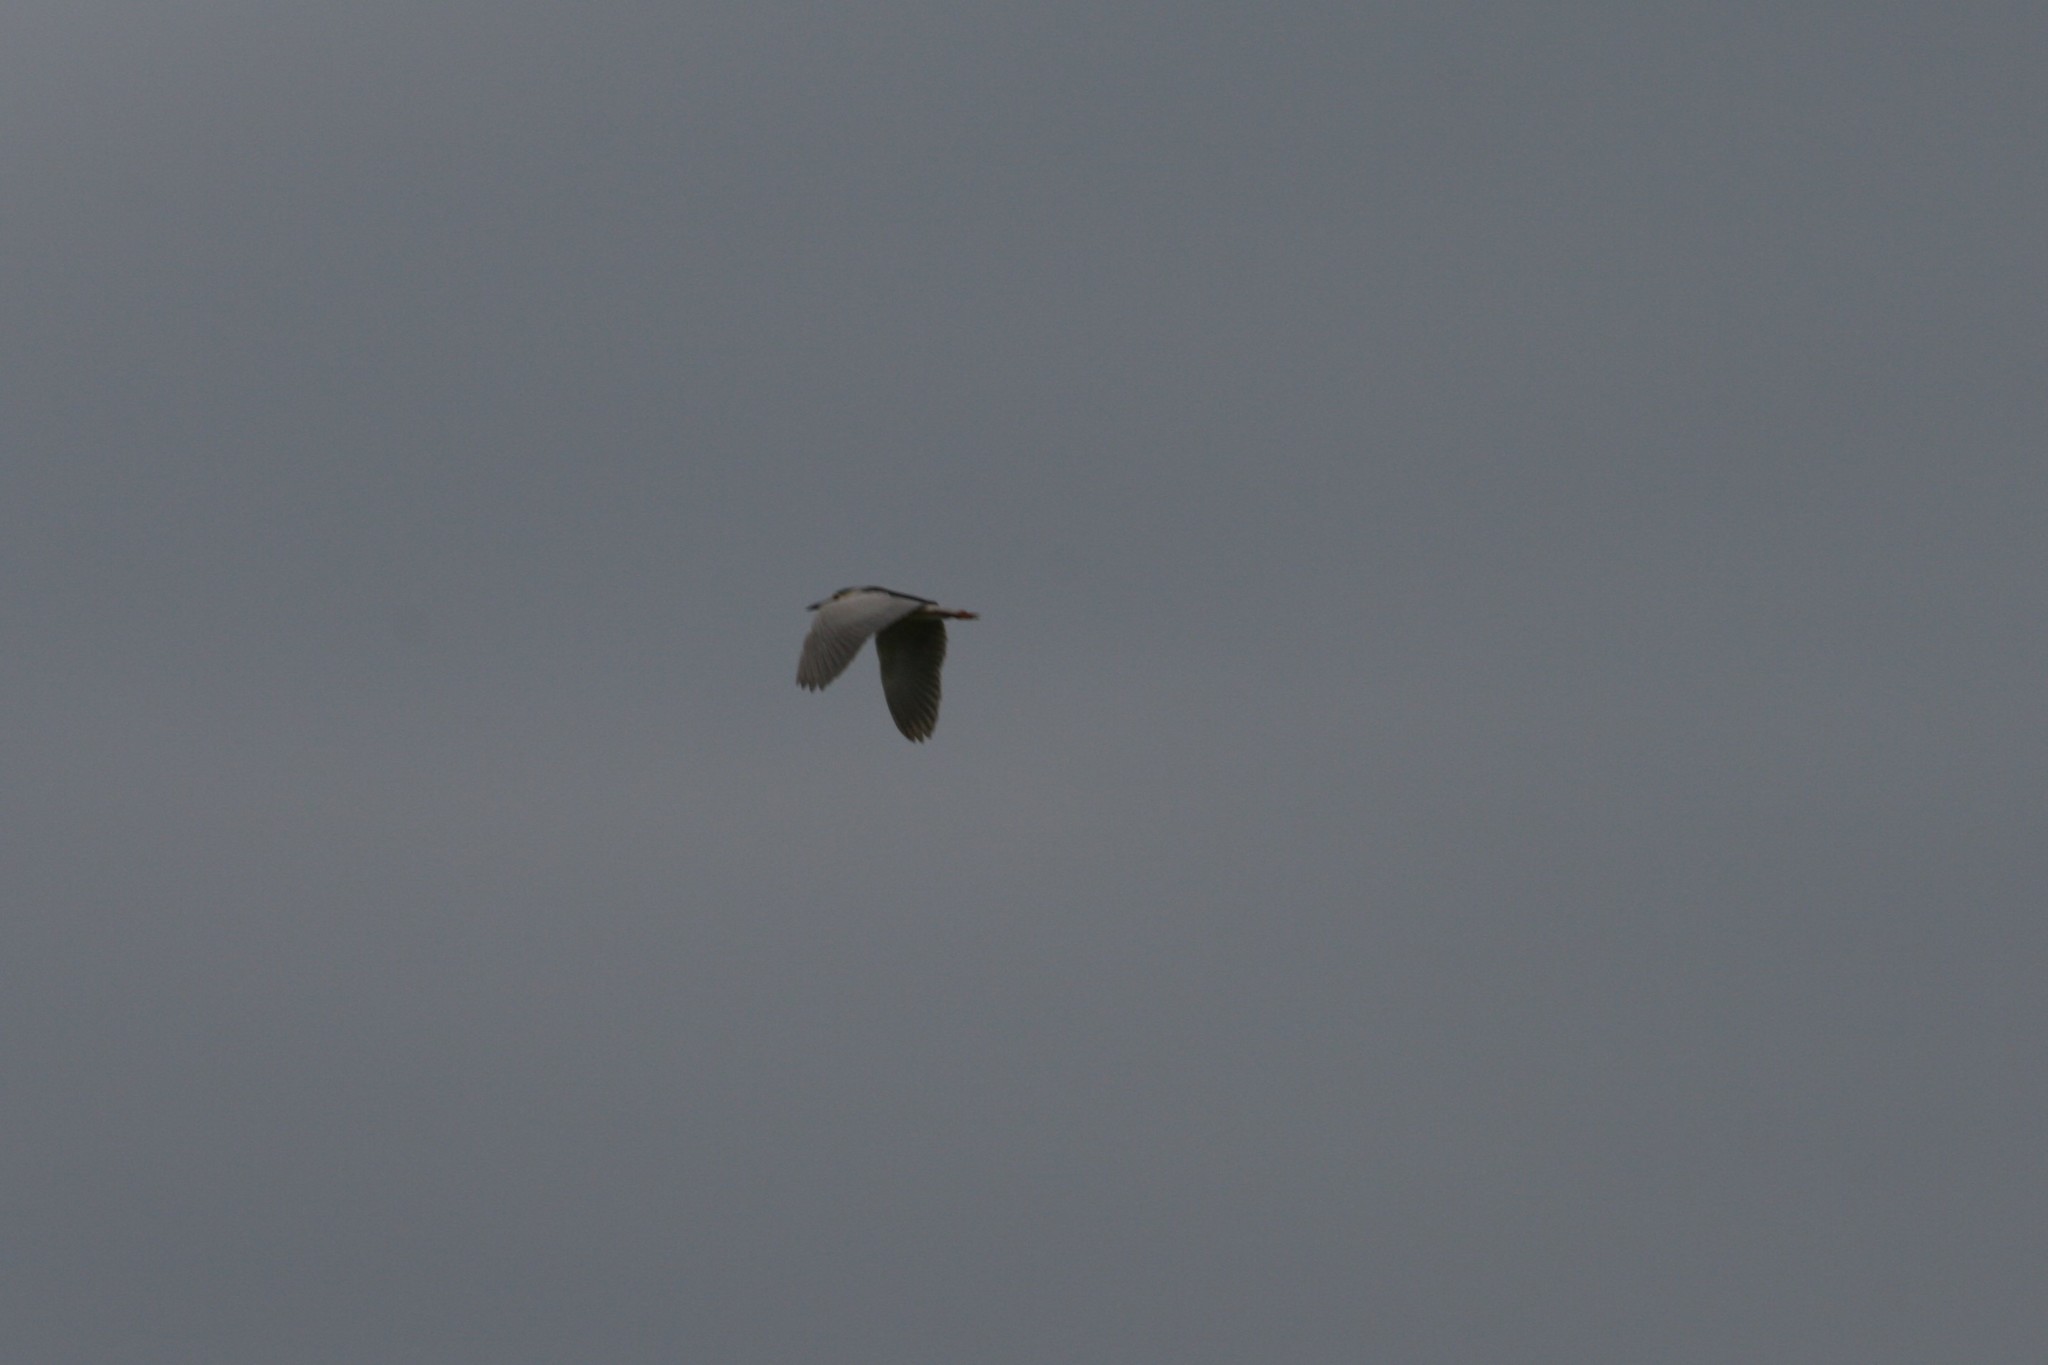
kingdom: Animalia
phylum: Chordata
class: Aves
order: Pelecaniformes
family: Ardeidae
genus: Nycticorax
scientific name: Nycticorax nycticorax
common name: Black-crowned night heron
